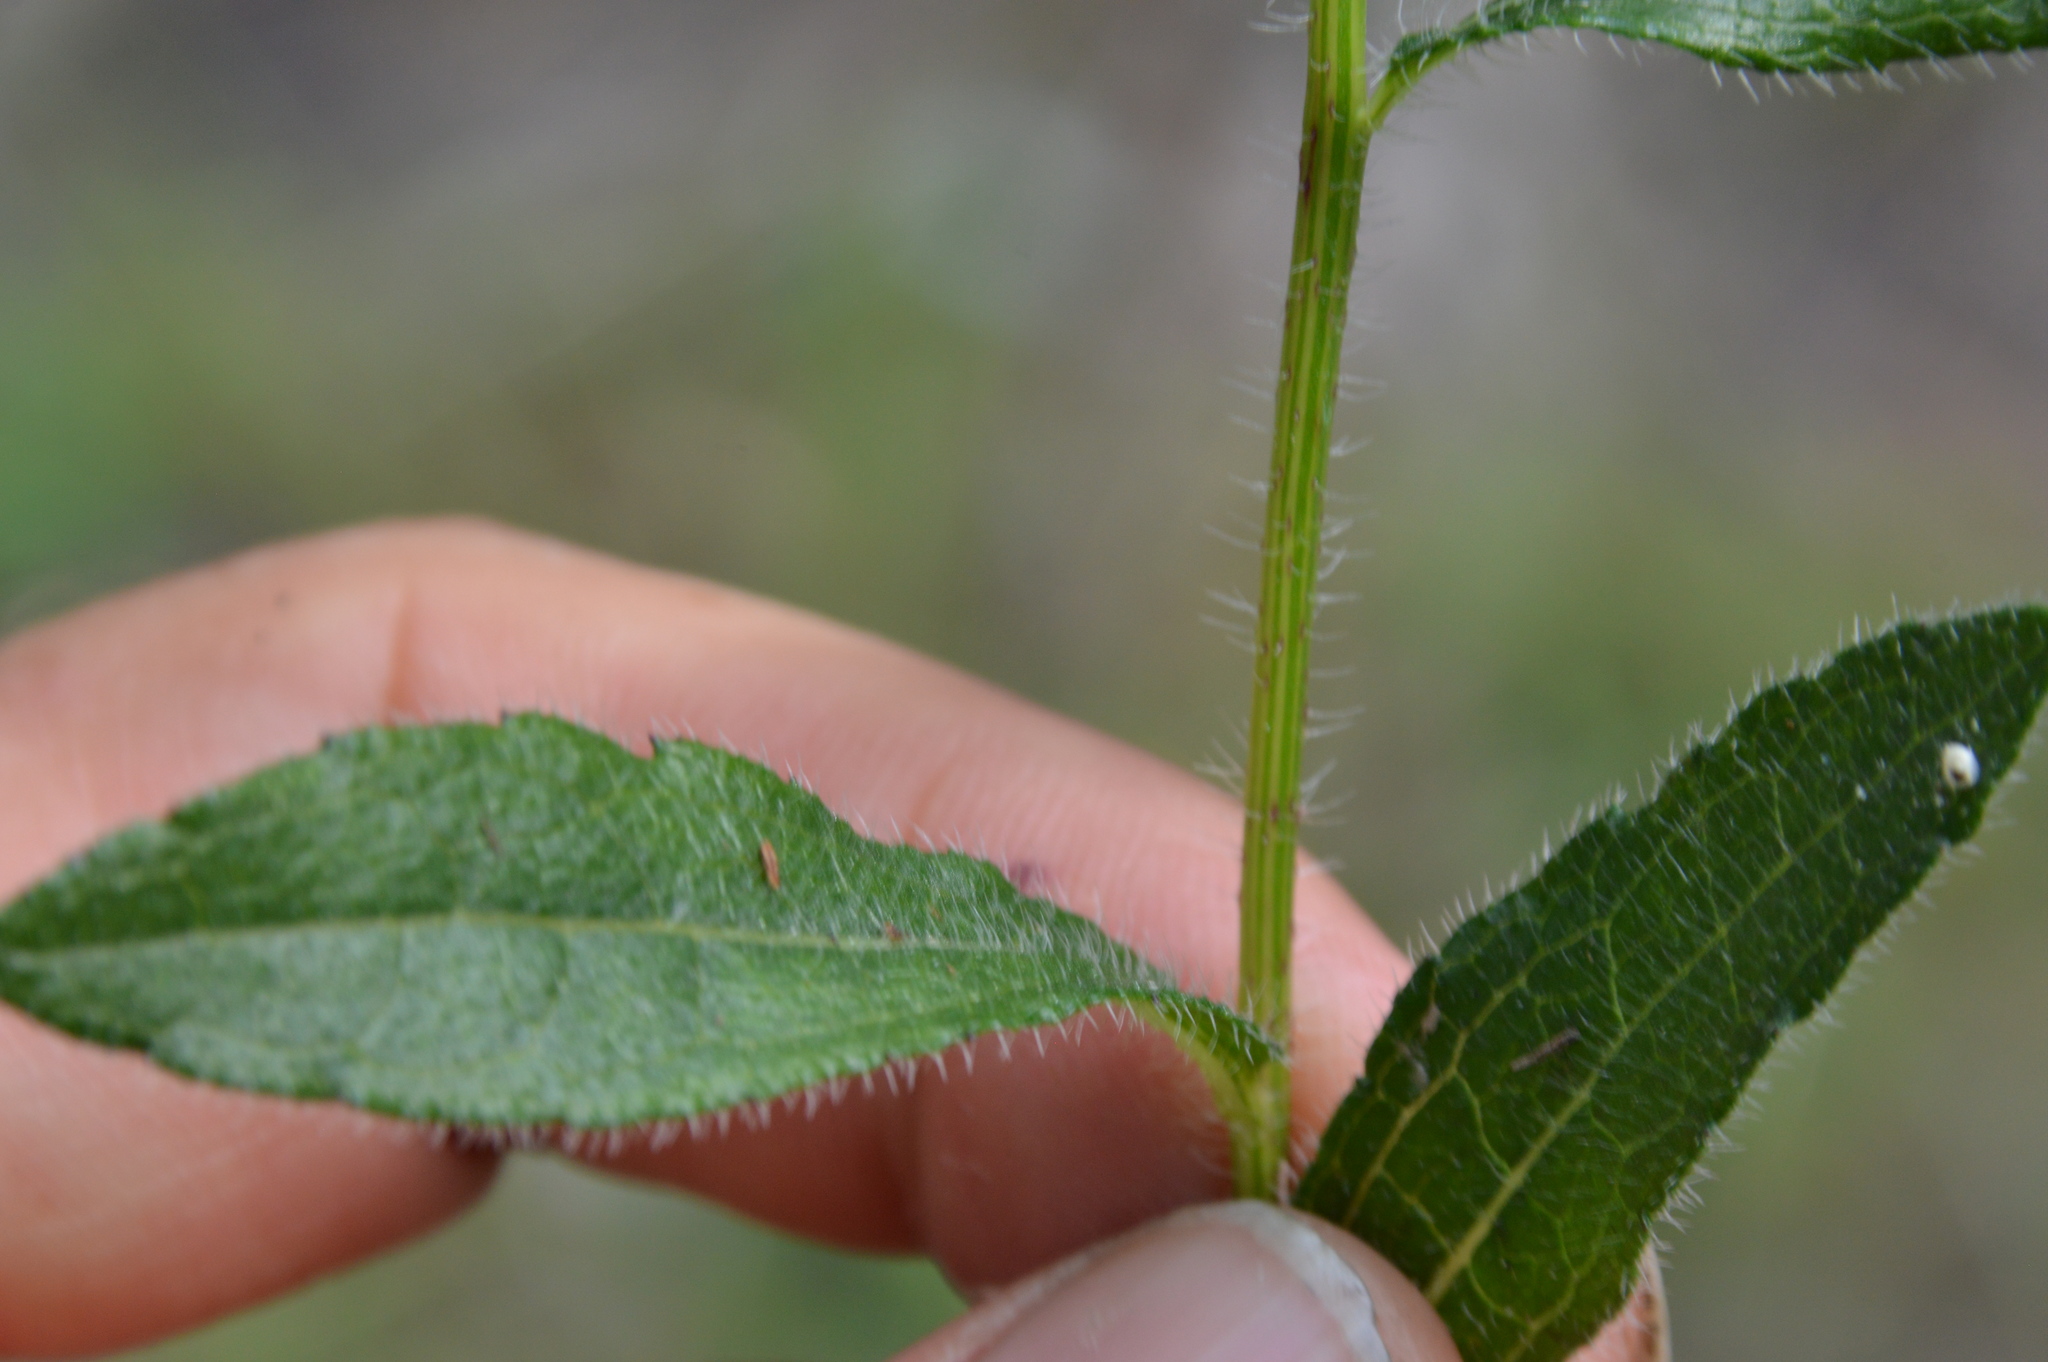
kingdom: Plantae
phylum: Tracheophyta
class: Magnoliopsida
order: Asterales
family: Asteraceae
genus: Rudbeckia
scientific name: Rudbeckia hirta
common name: Black-eyed-susan
